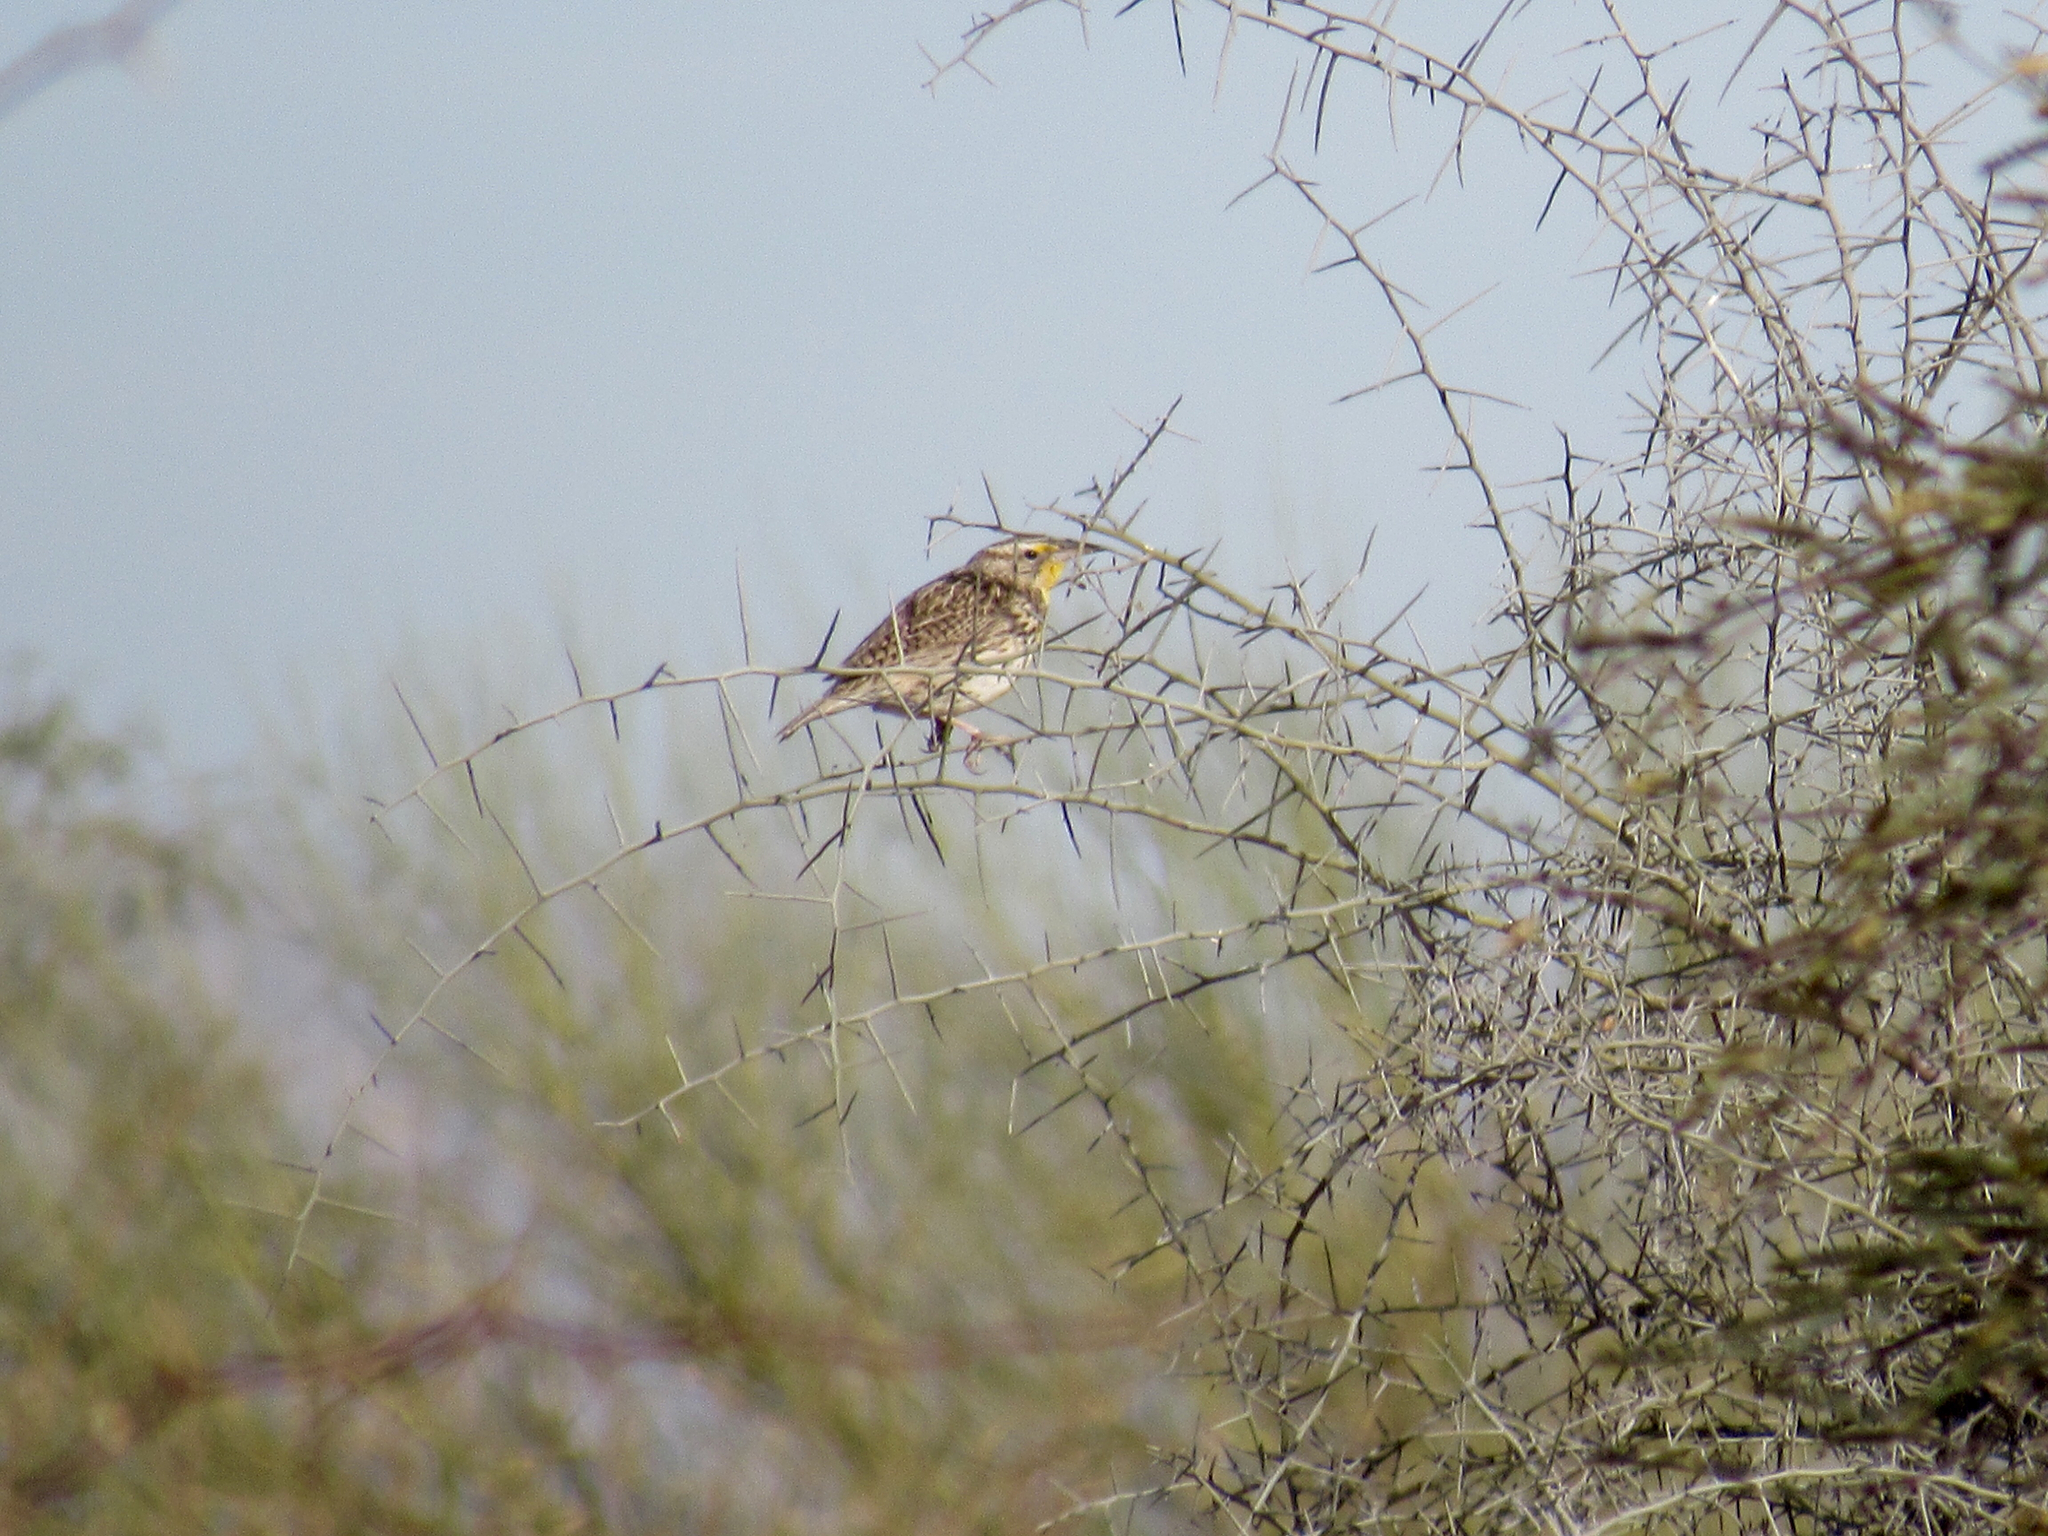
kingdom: Animalia
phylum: Chordata
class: Aves
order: Passeriformes
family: Icteridae
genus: Sturnella
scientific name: Sturnella lilianae
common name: Lilian's meadowlark
